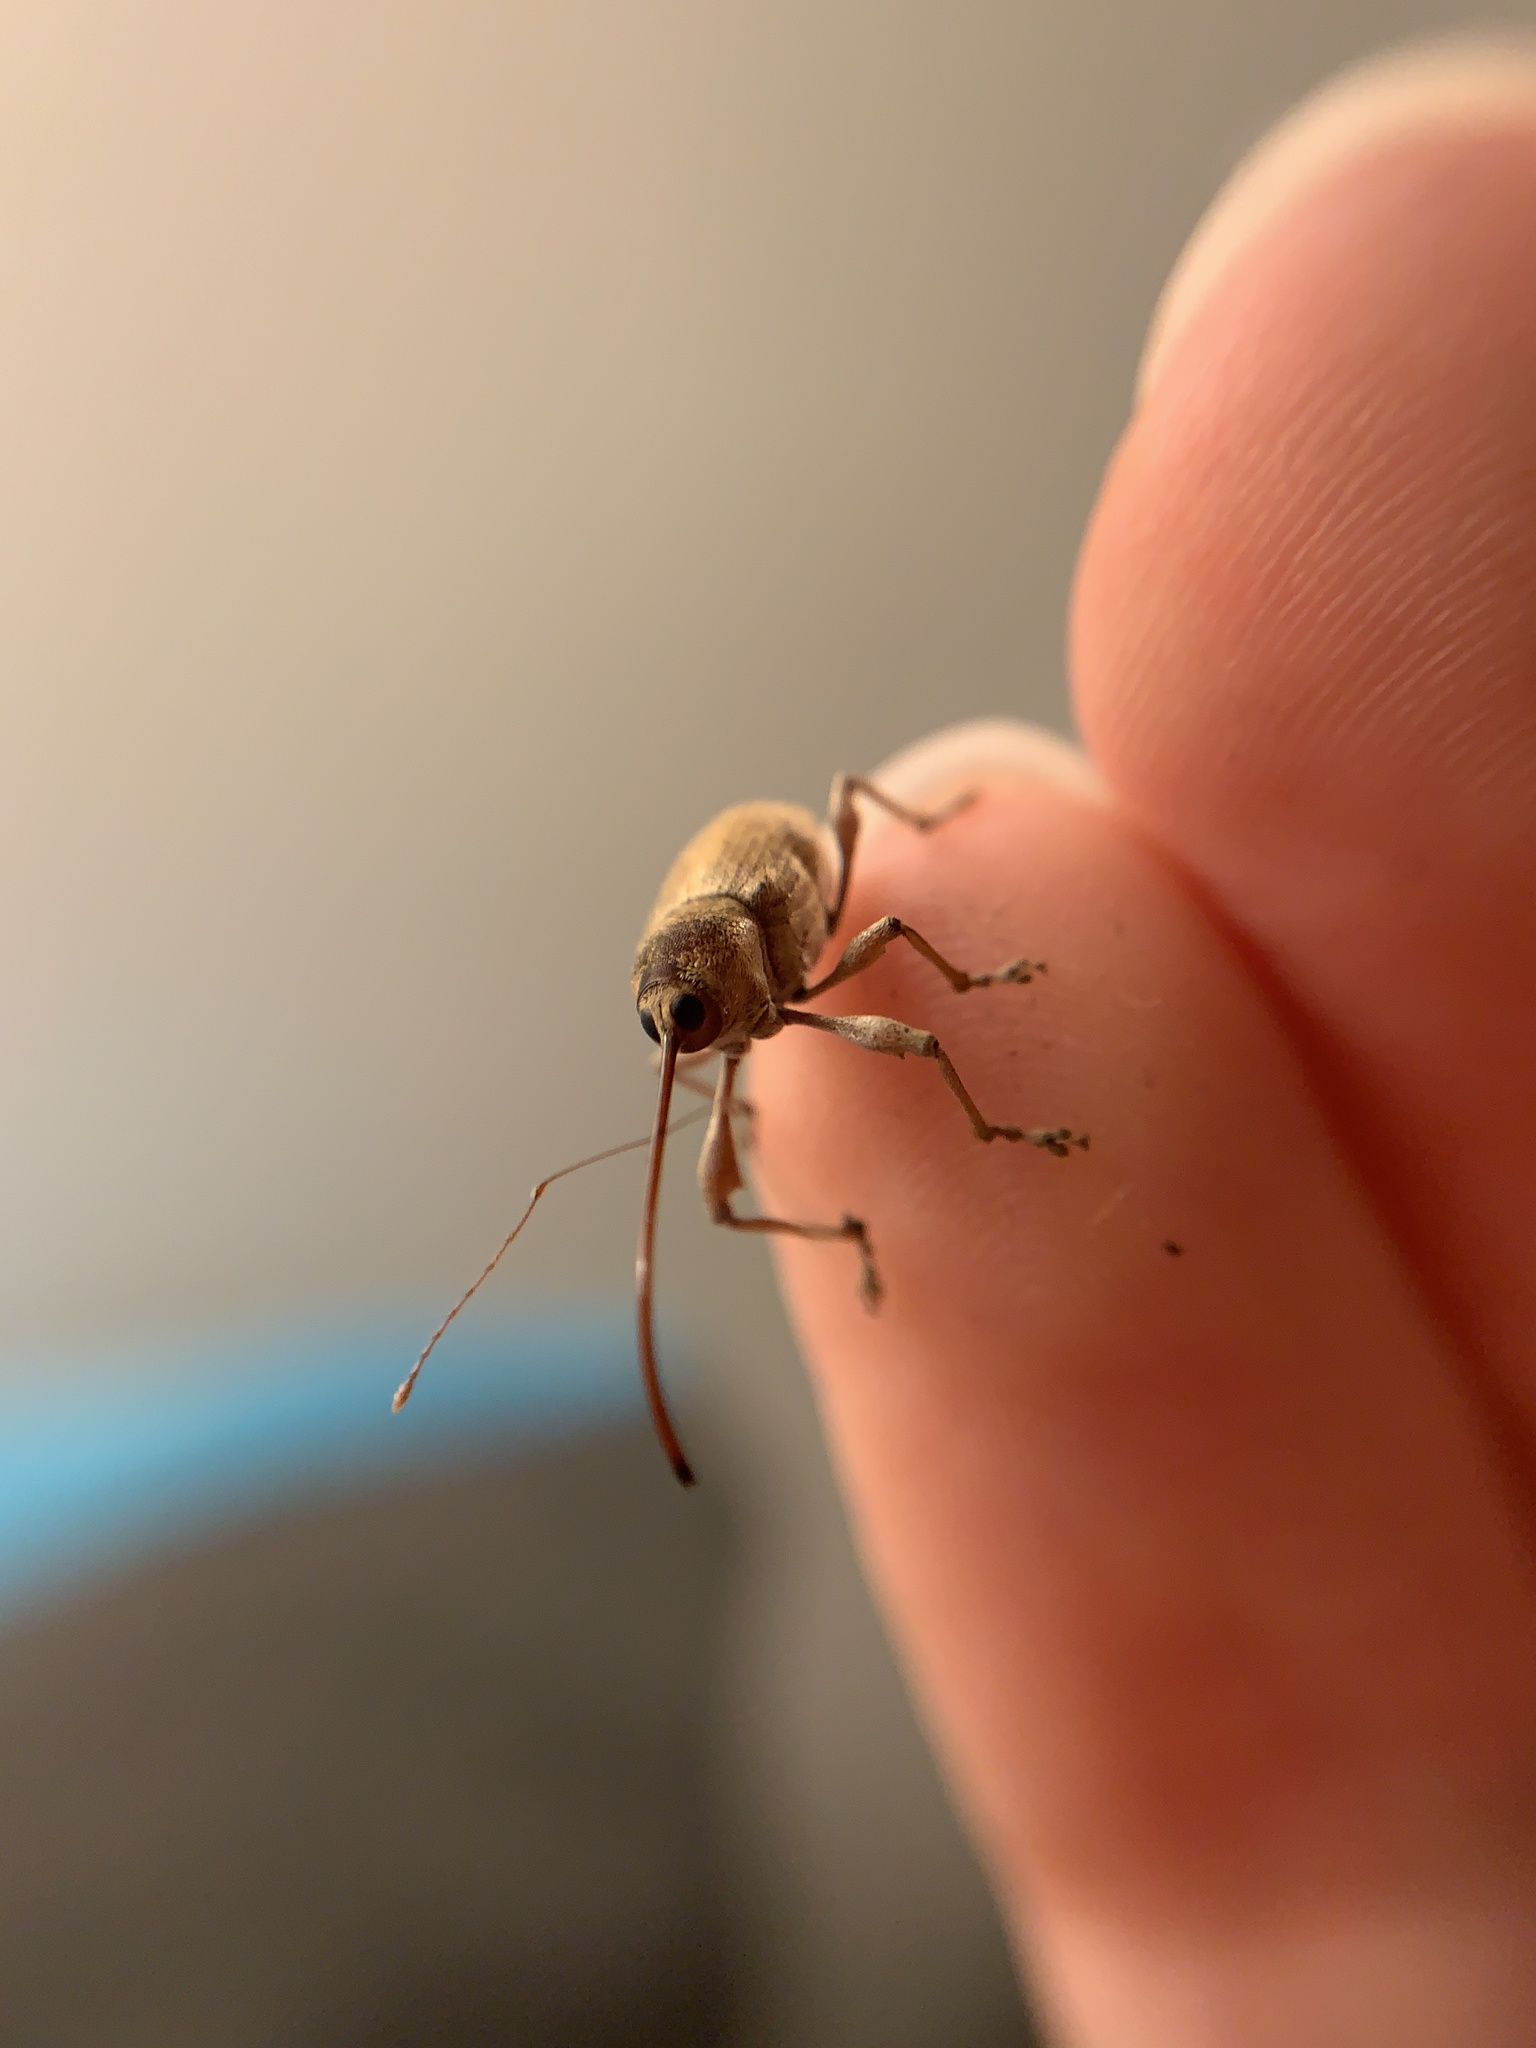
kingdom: Animalia
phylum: Arthropoda
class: Insecta
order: Coleoptera
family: Curculionidae
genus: Curculio
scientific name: Curculio elephas
